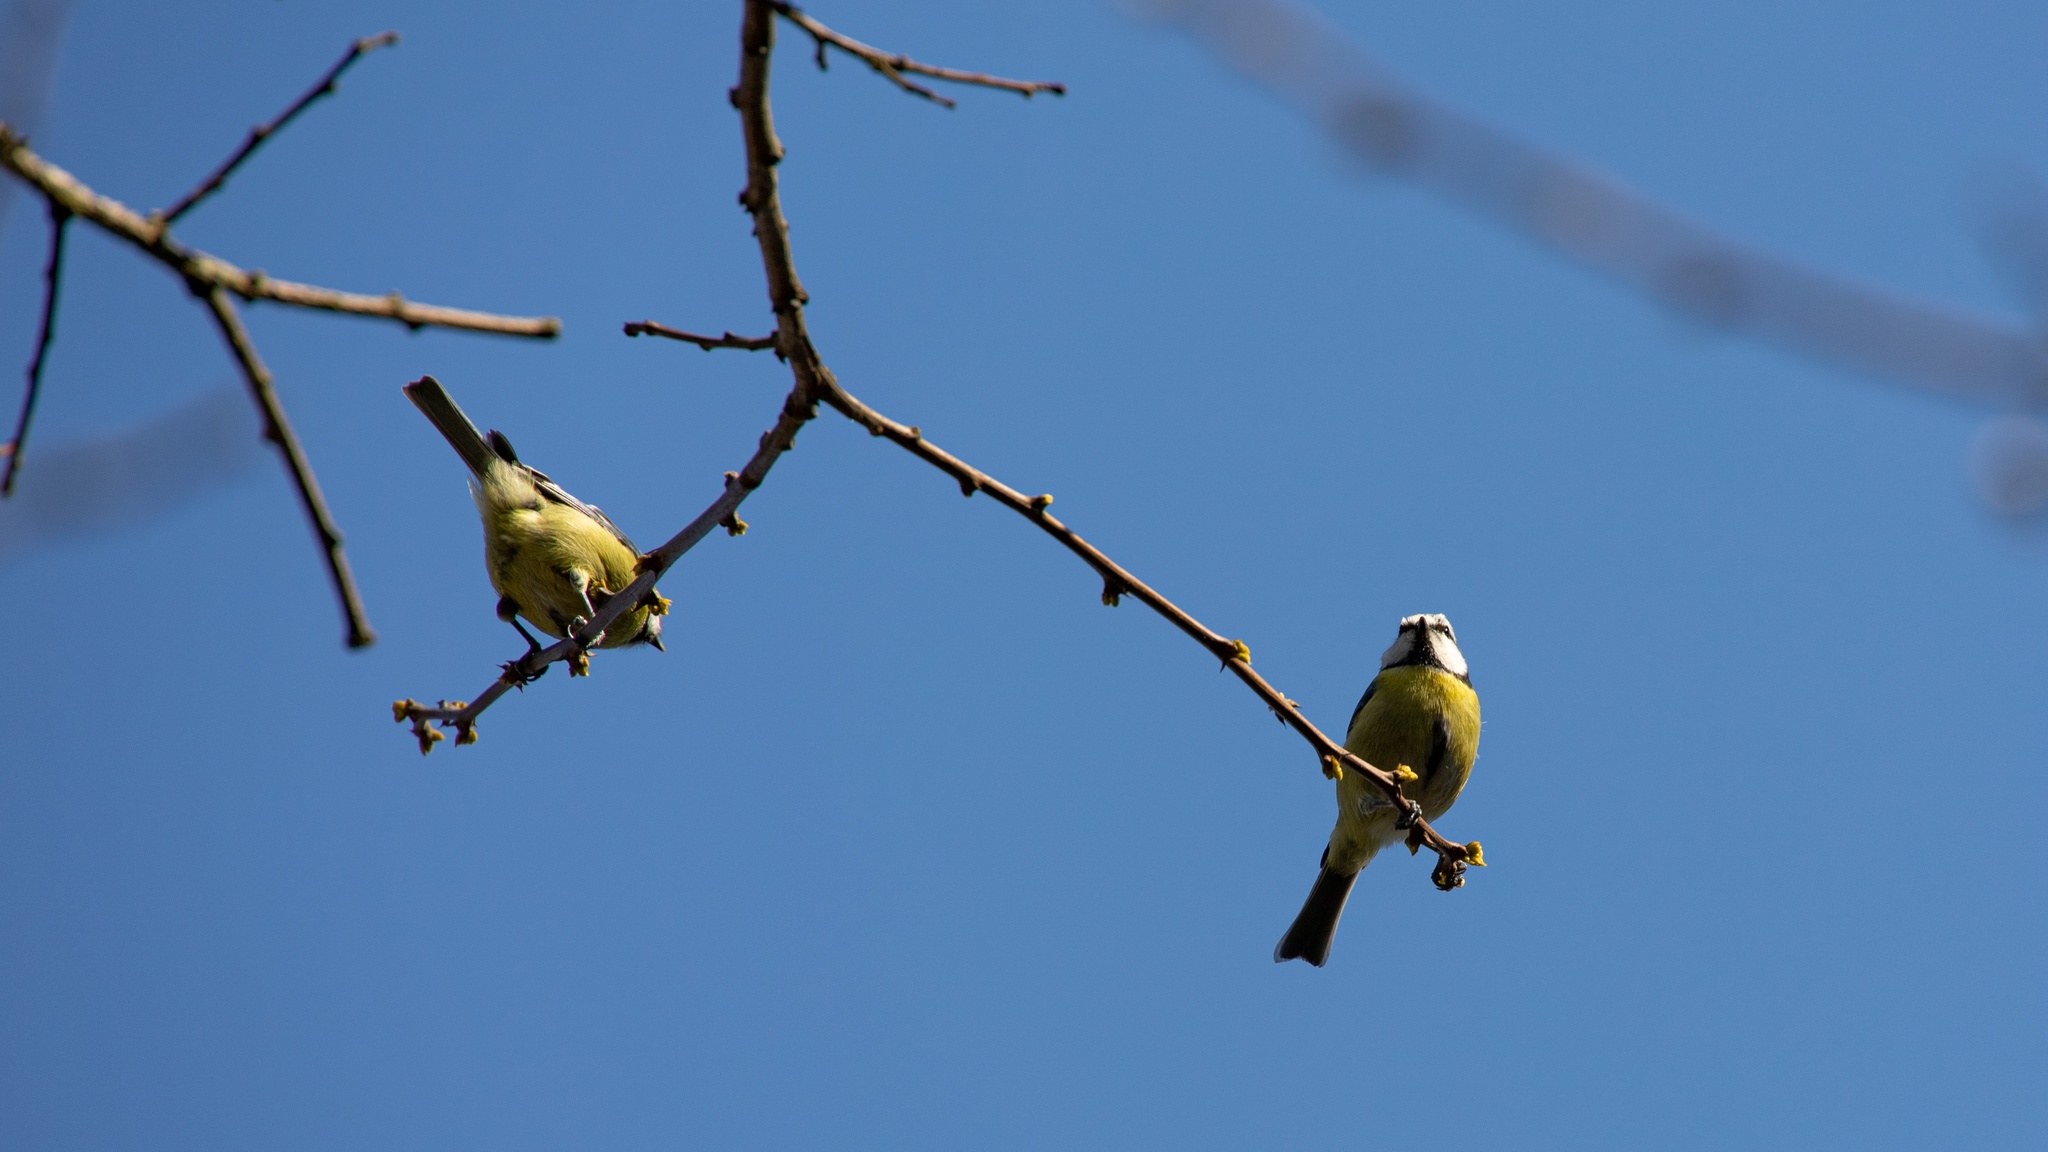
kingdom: Animalia
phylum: Chordata
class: Aves
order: Passeriformes
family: Paridae
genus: Cyanistes
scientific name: Cyanistes caeruleus
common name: Eurasian blue tit
